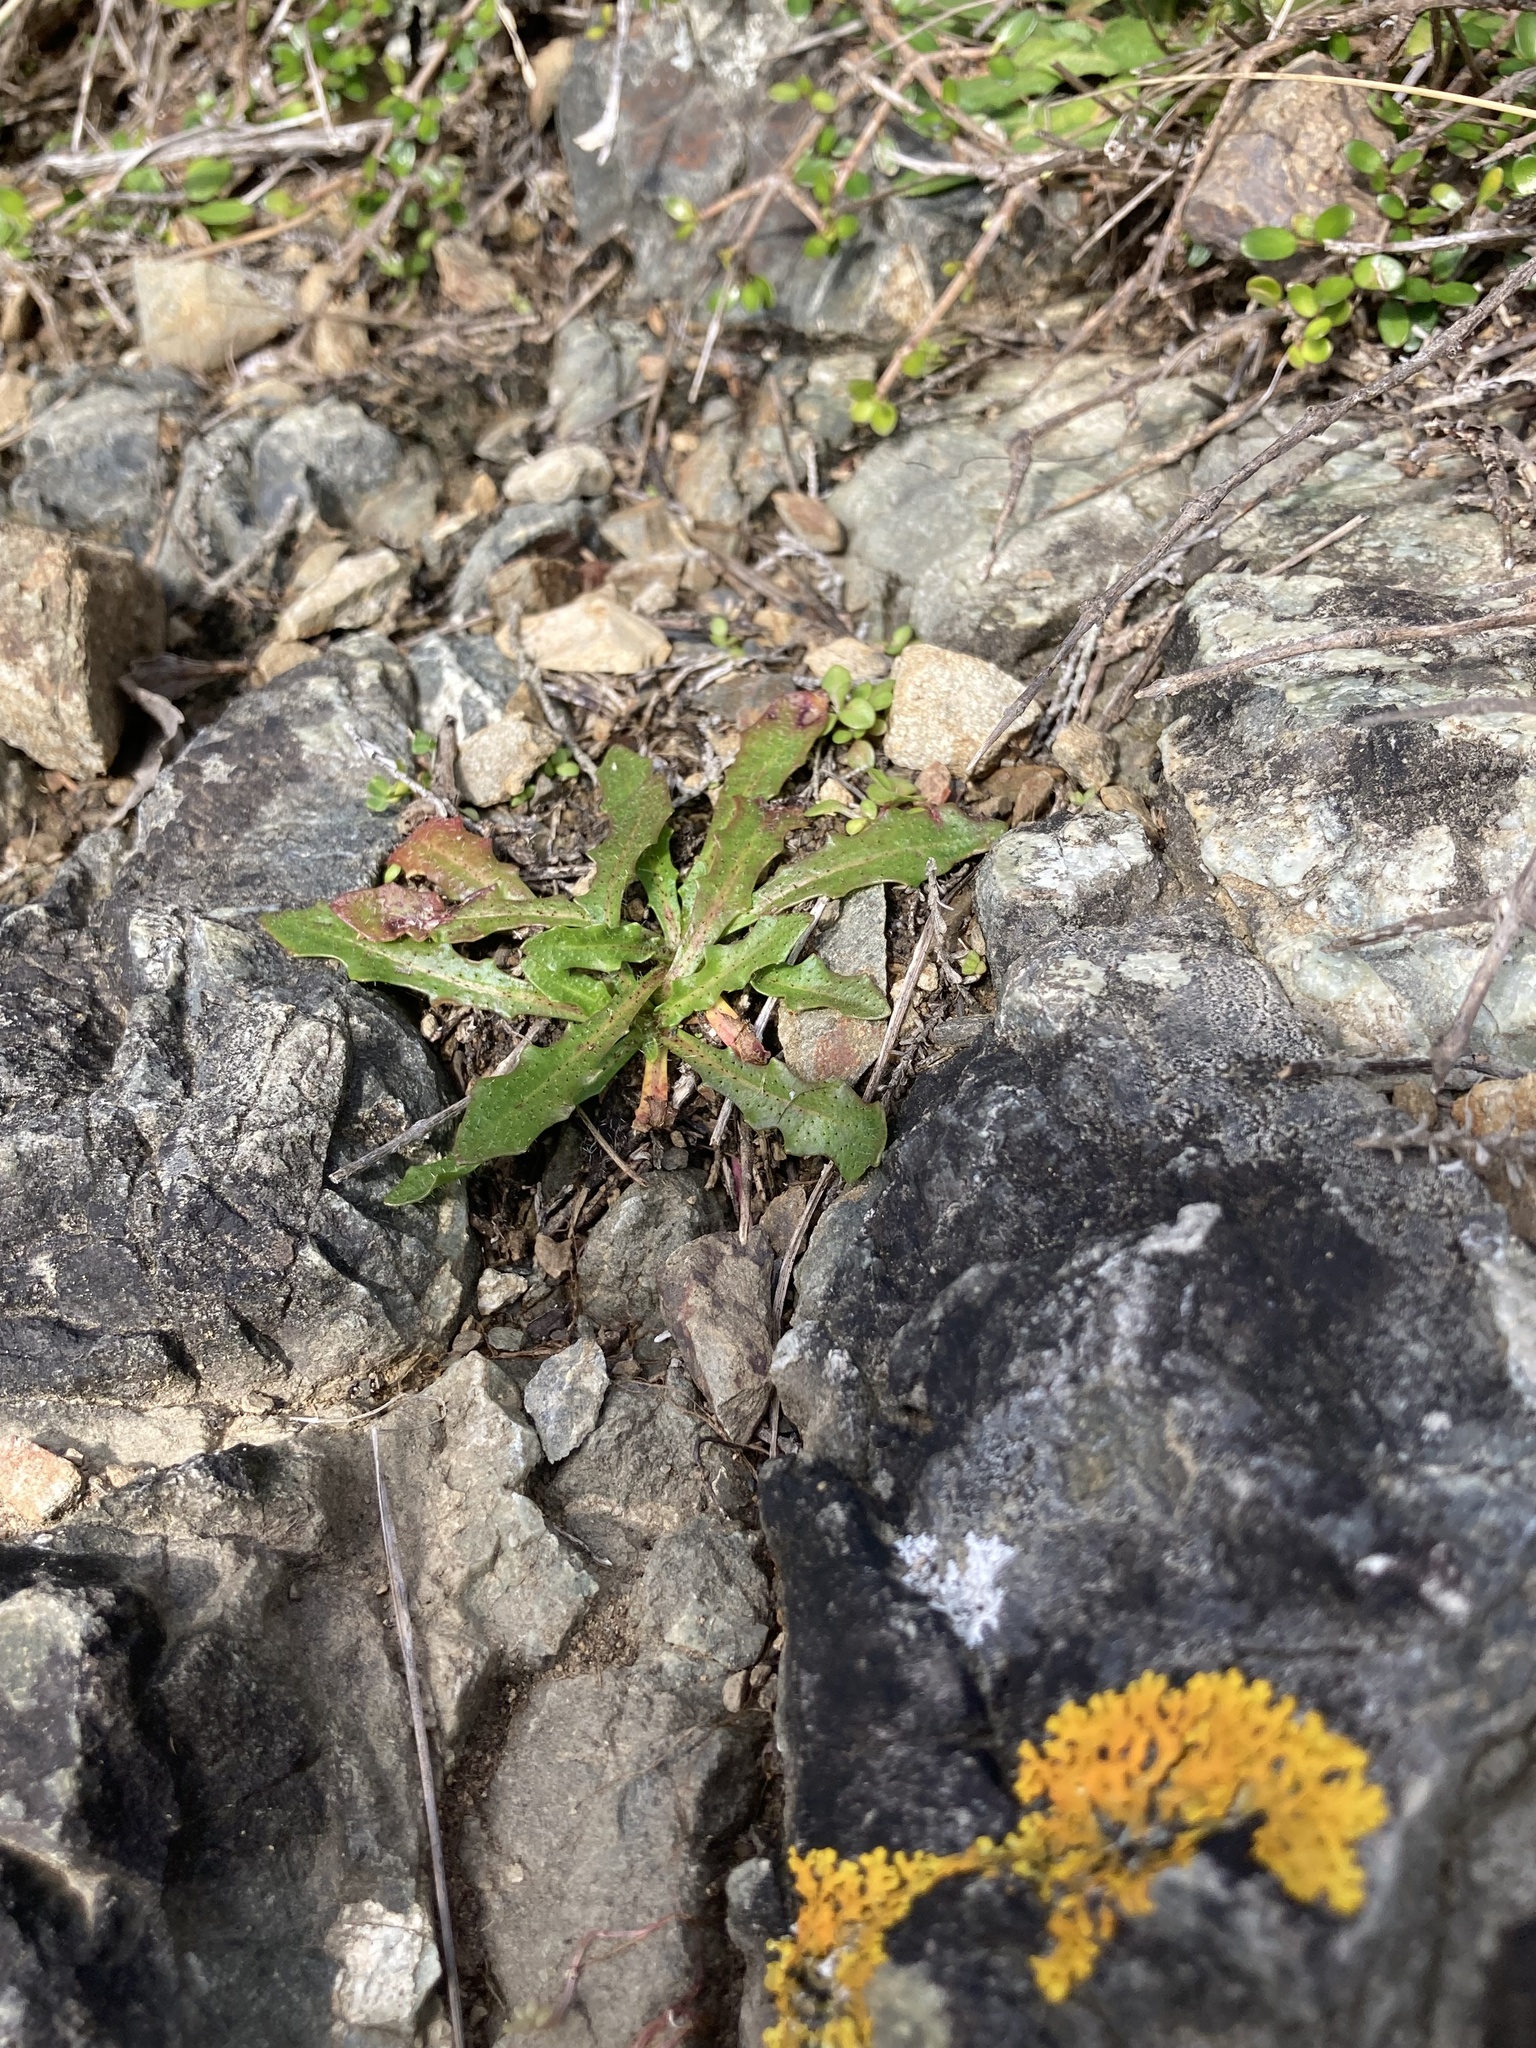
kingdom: Plantae
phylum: Tracheophyta
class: Magnoliopsida
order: Asterales
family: Asteraceae
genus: Hypochaeris
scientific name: Hypochaeris radicata
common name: Flatweed
